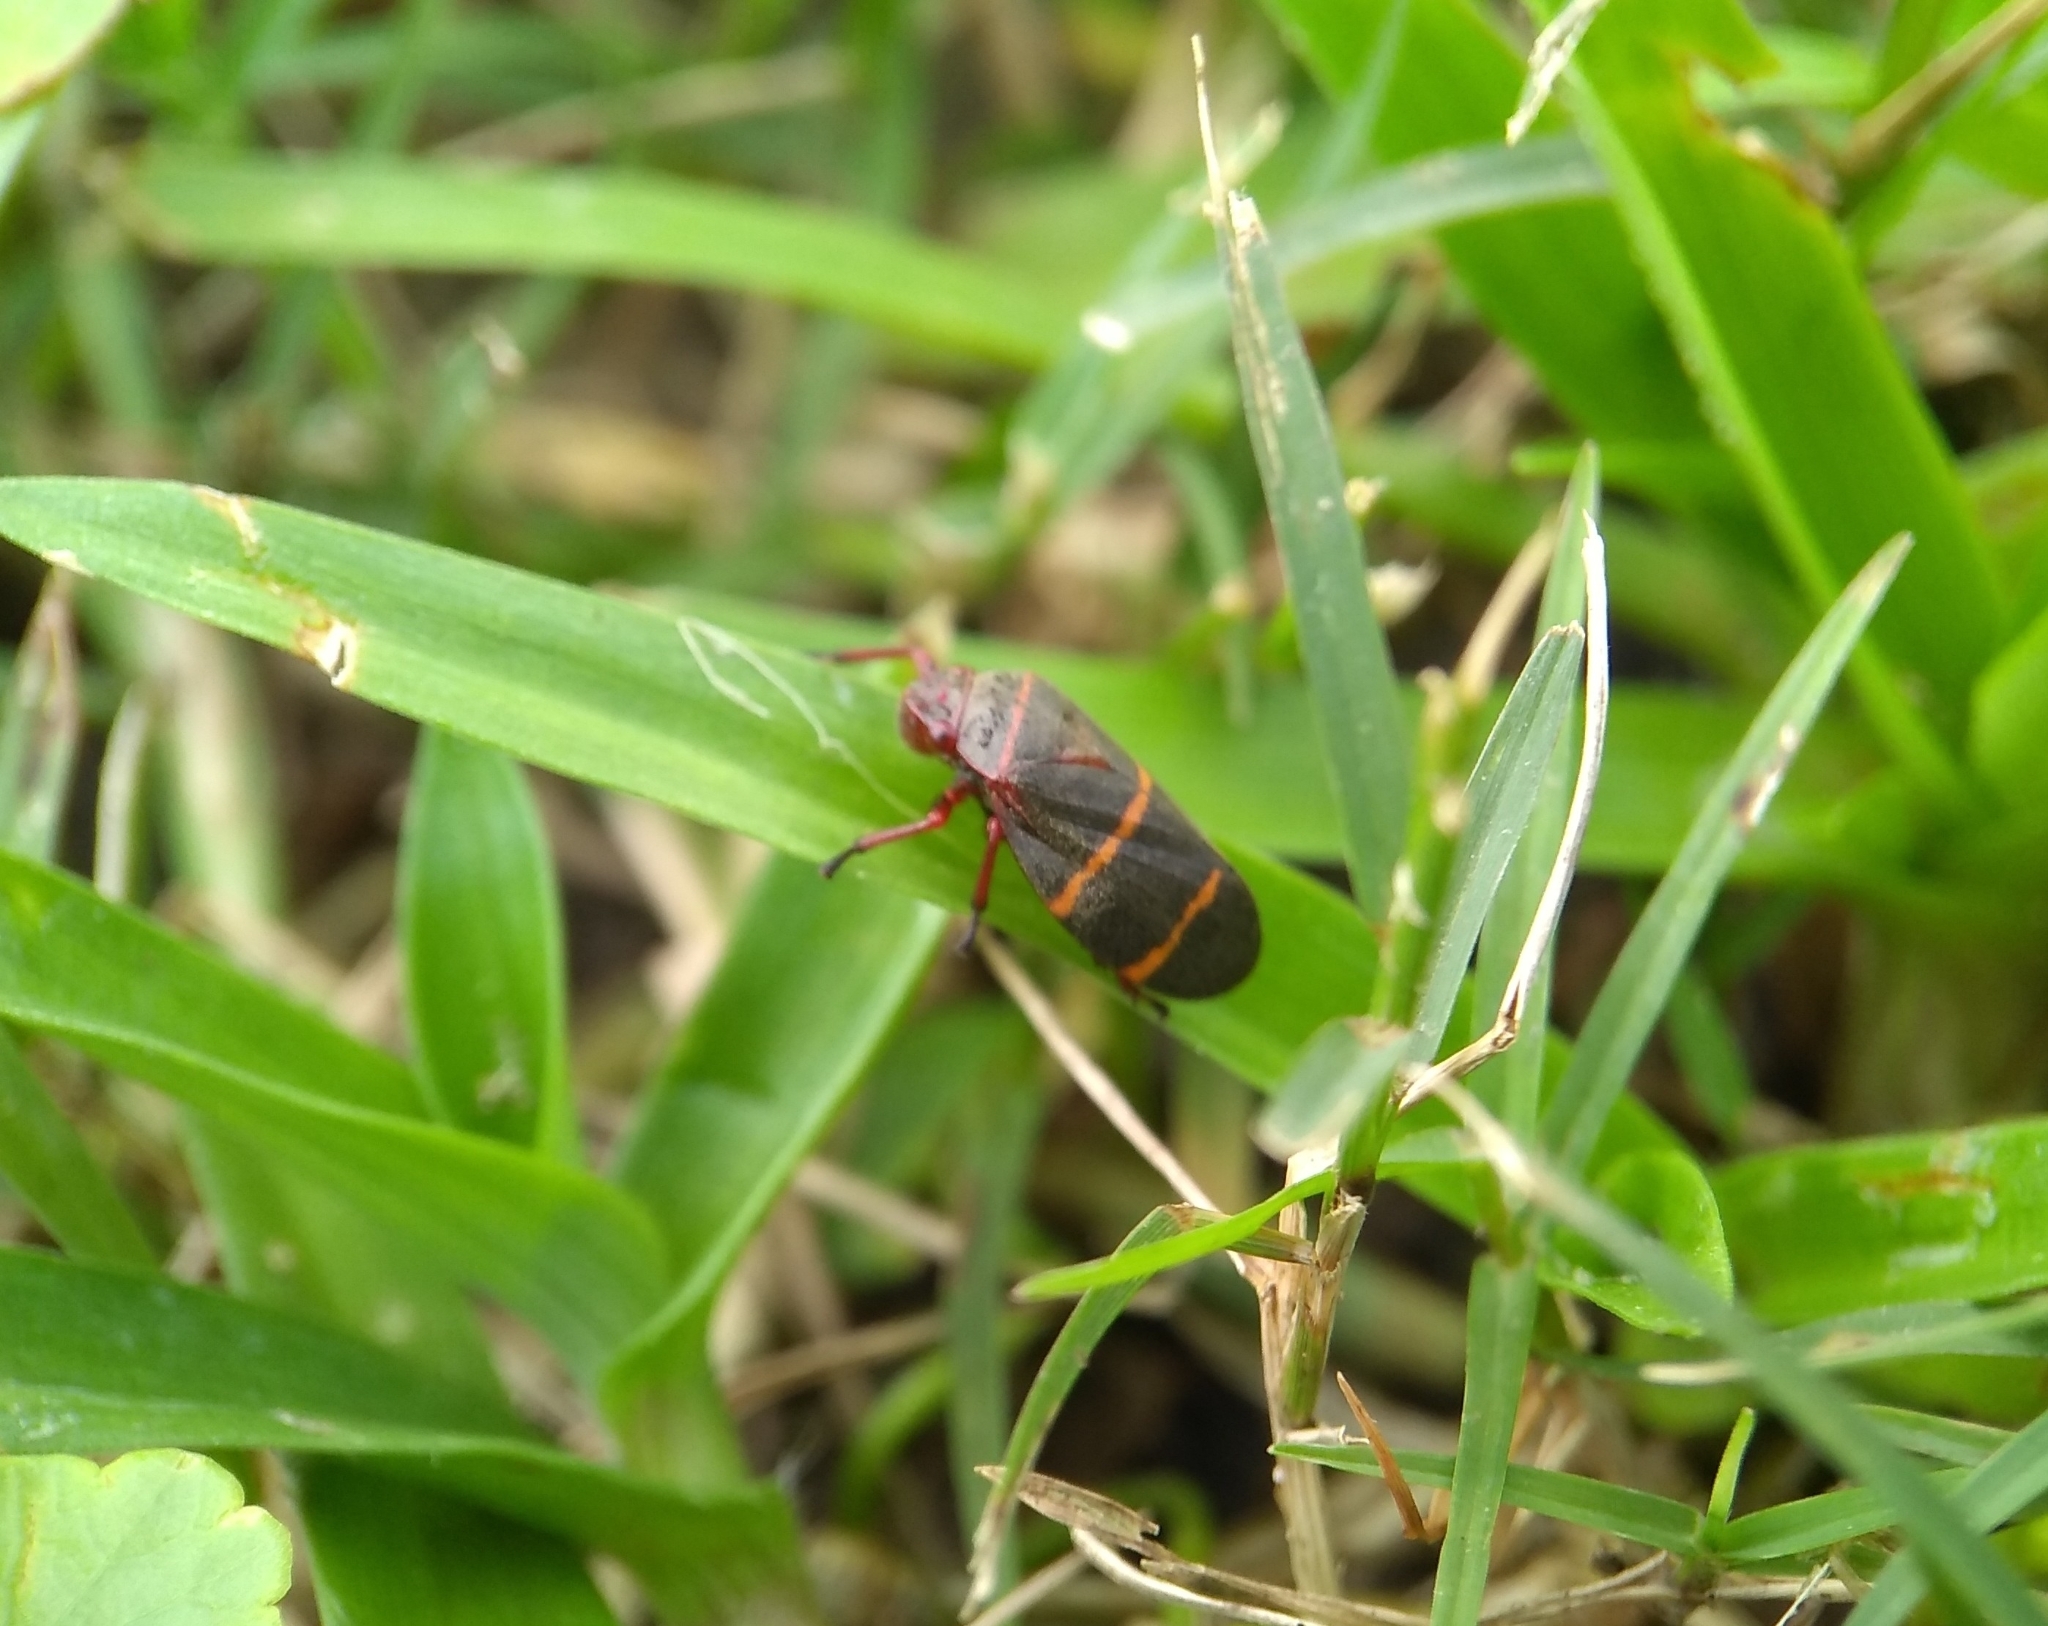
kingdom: Animalia
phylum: Arthropoda
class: Insecta
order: Hemiptera
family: Cercopidae
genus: Prosapia
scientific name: Prosapia bicincta
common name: Twolined spittlebug
